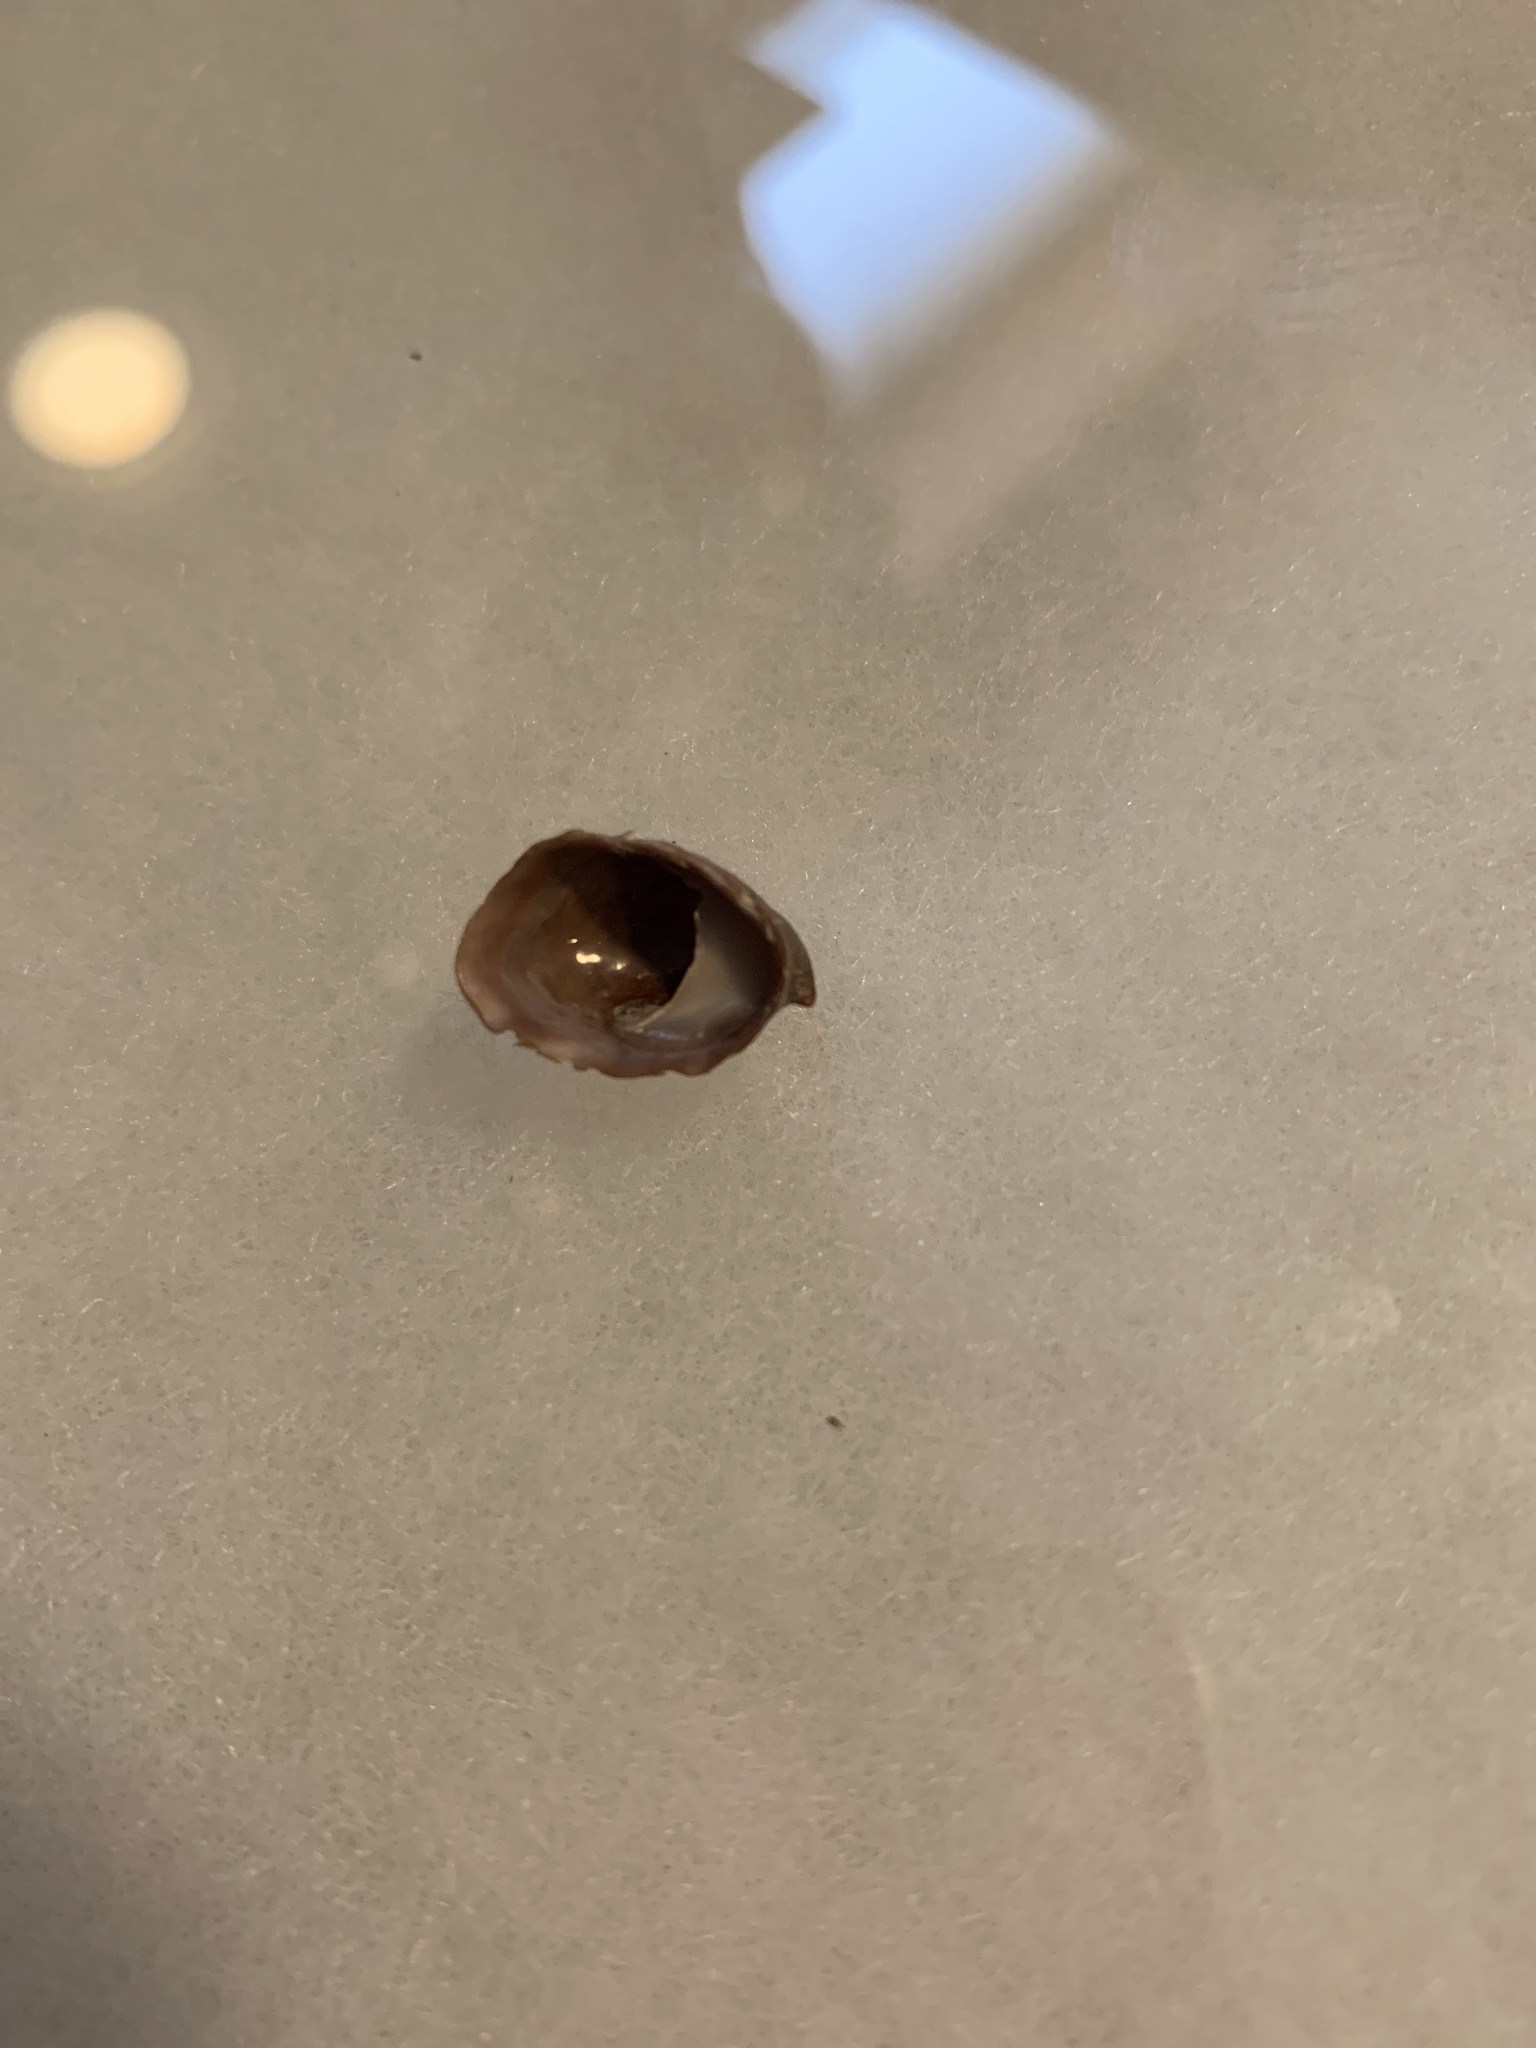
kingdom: Animalia
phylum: Mollusca
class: Gastropoda
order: Littorinimorpha
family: Calyptraeidae
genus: Crepidula
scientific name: Crepidula adunca
